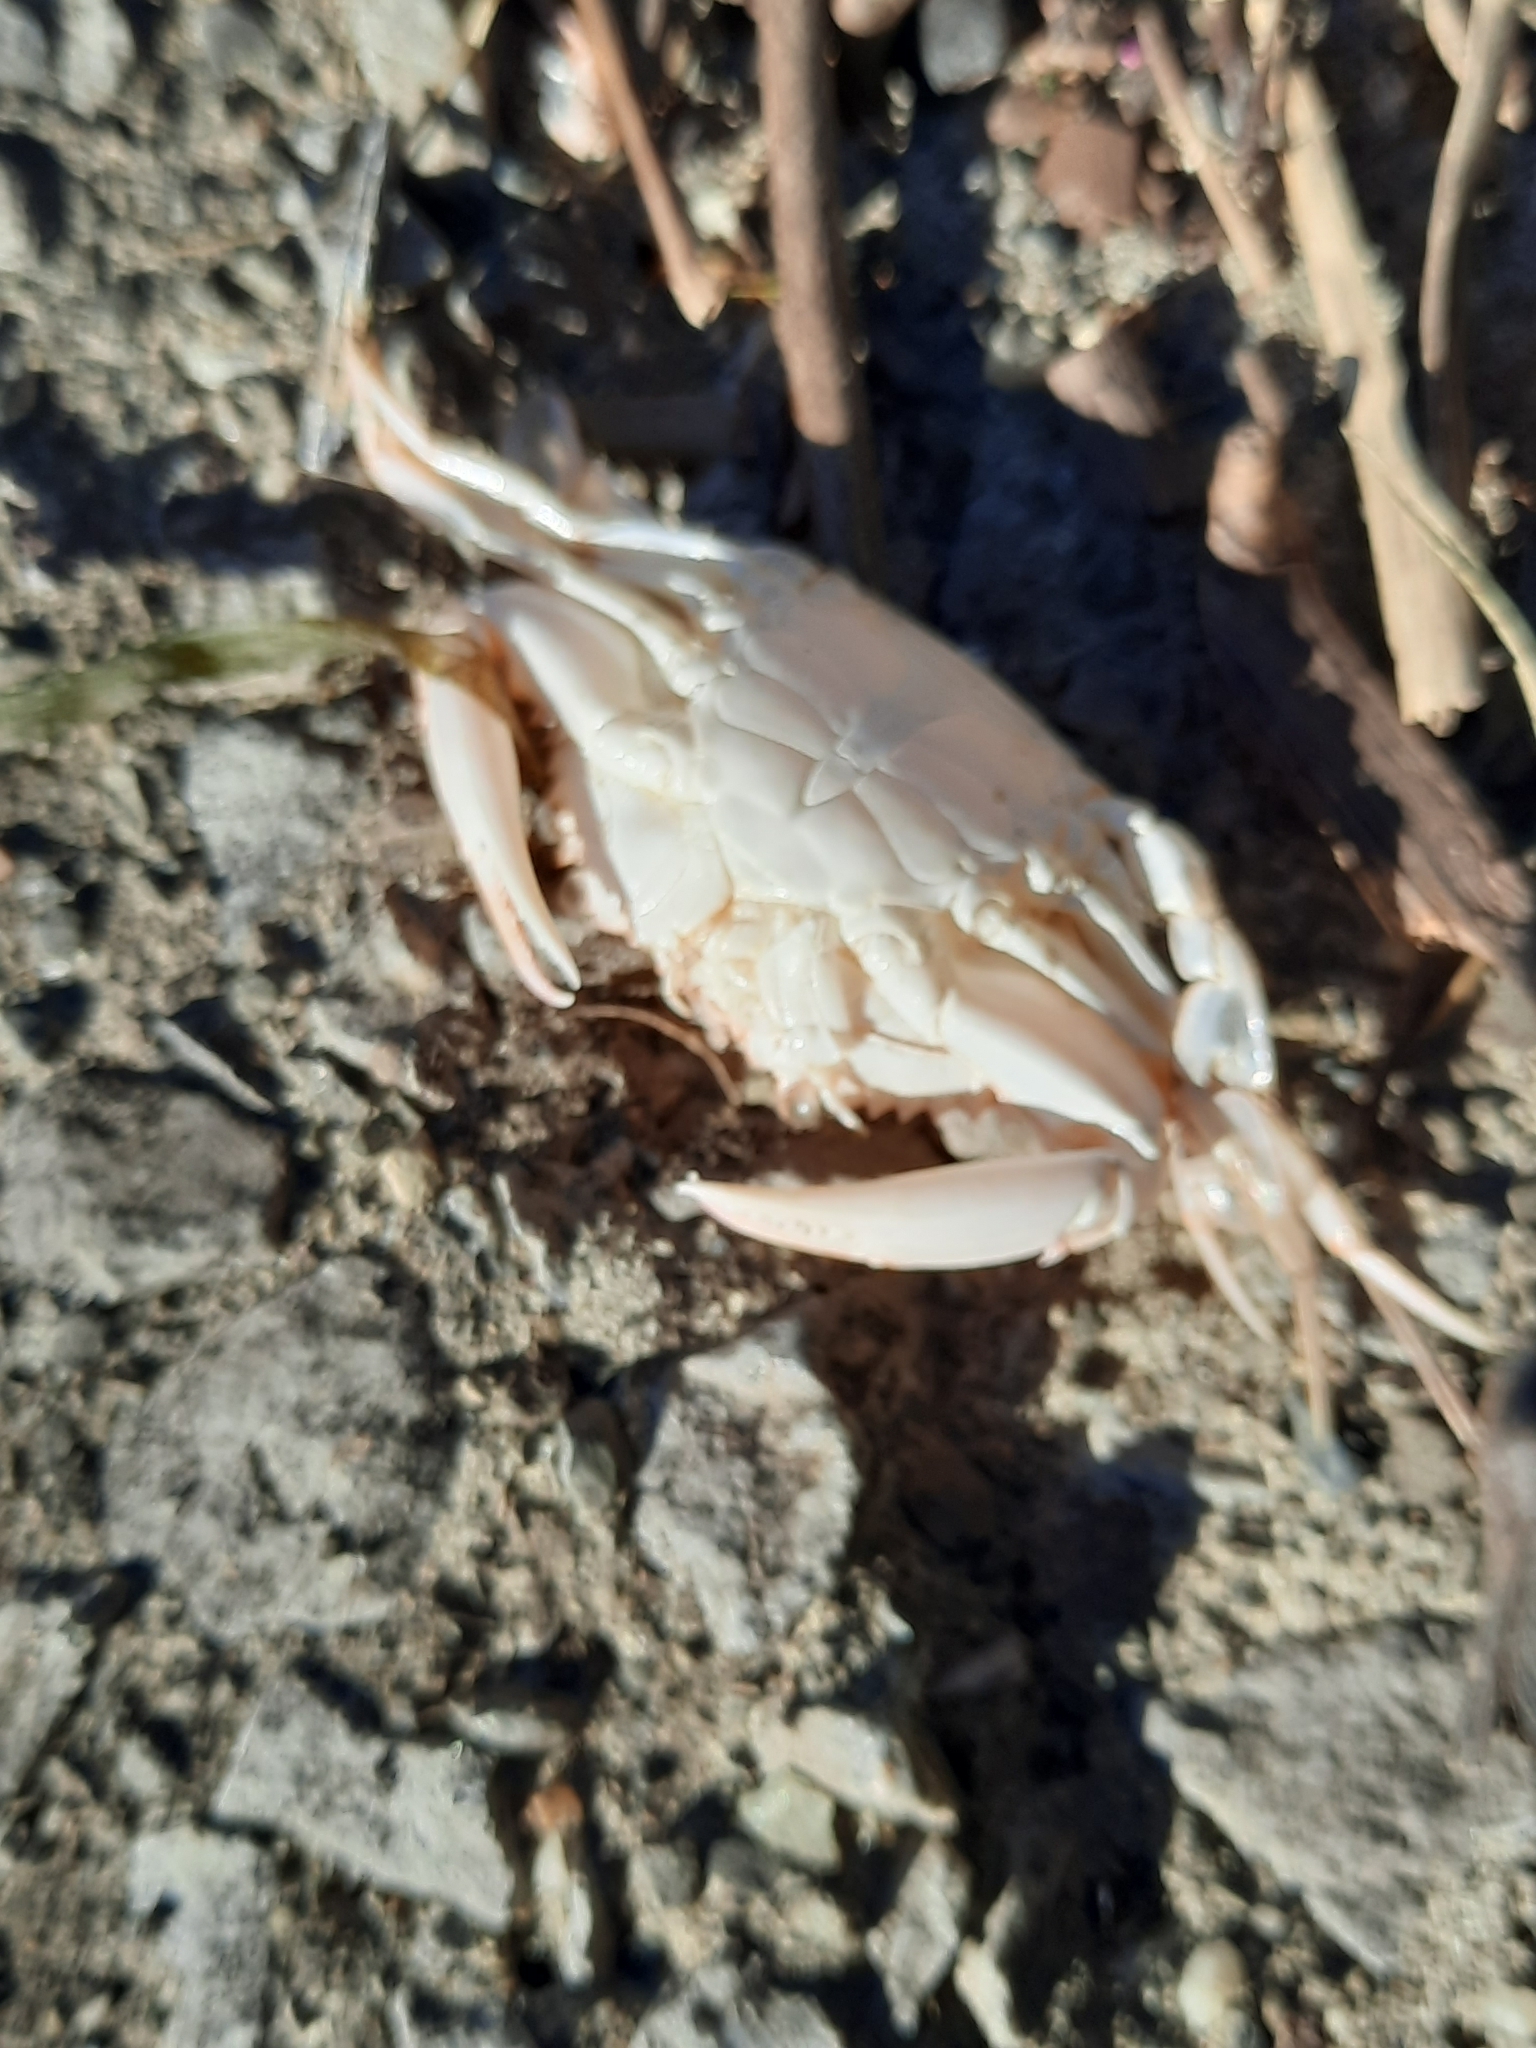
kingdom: Animalia
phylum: Arthropoda
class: Malacostraca
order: Decapoda
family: Portunidae
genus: Callinectes
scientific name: Callinectes sapidus
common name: Blue crab
